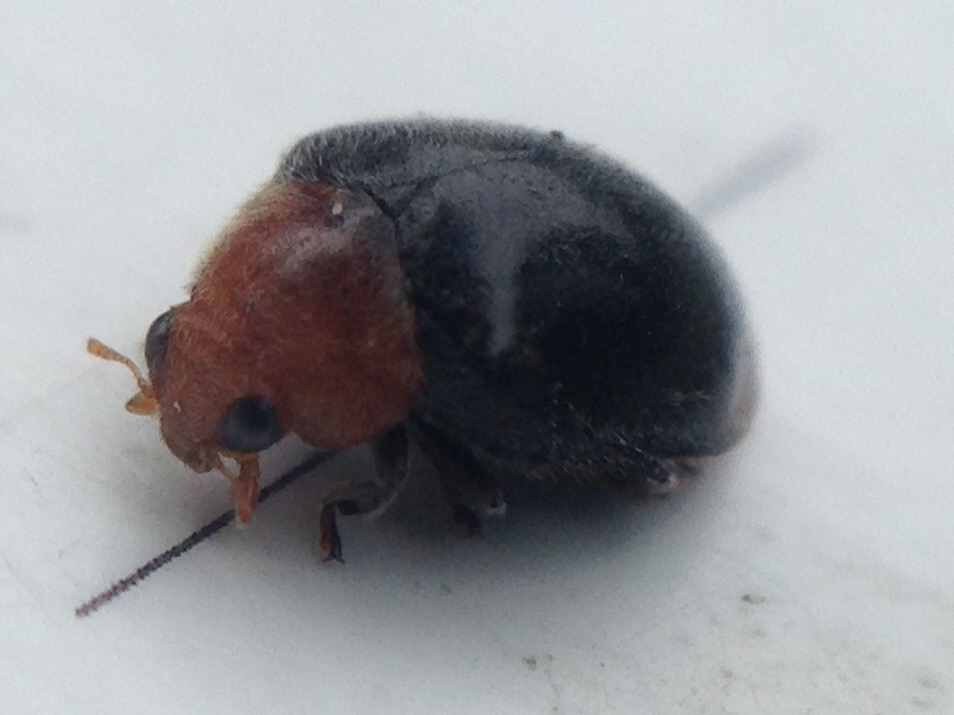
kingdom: Animalia
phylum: Arthropoda
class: Insecta
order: Coleoptera
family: Coccinellidae
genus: Cryptolaemus
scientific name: Cryptolaemus montrouzieri
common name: Mealybug destroyer
